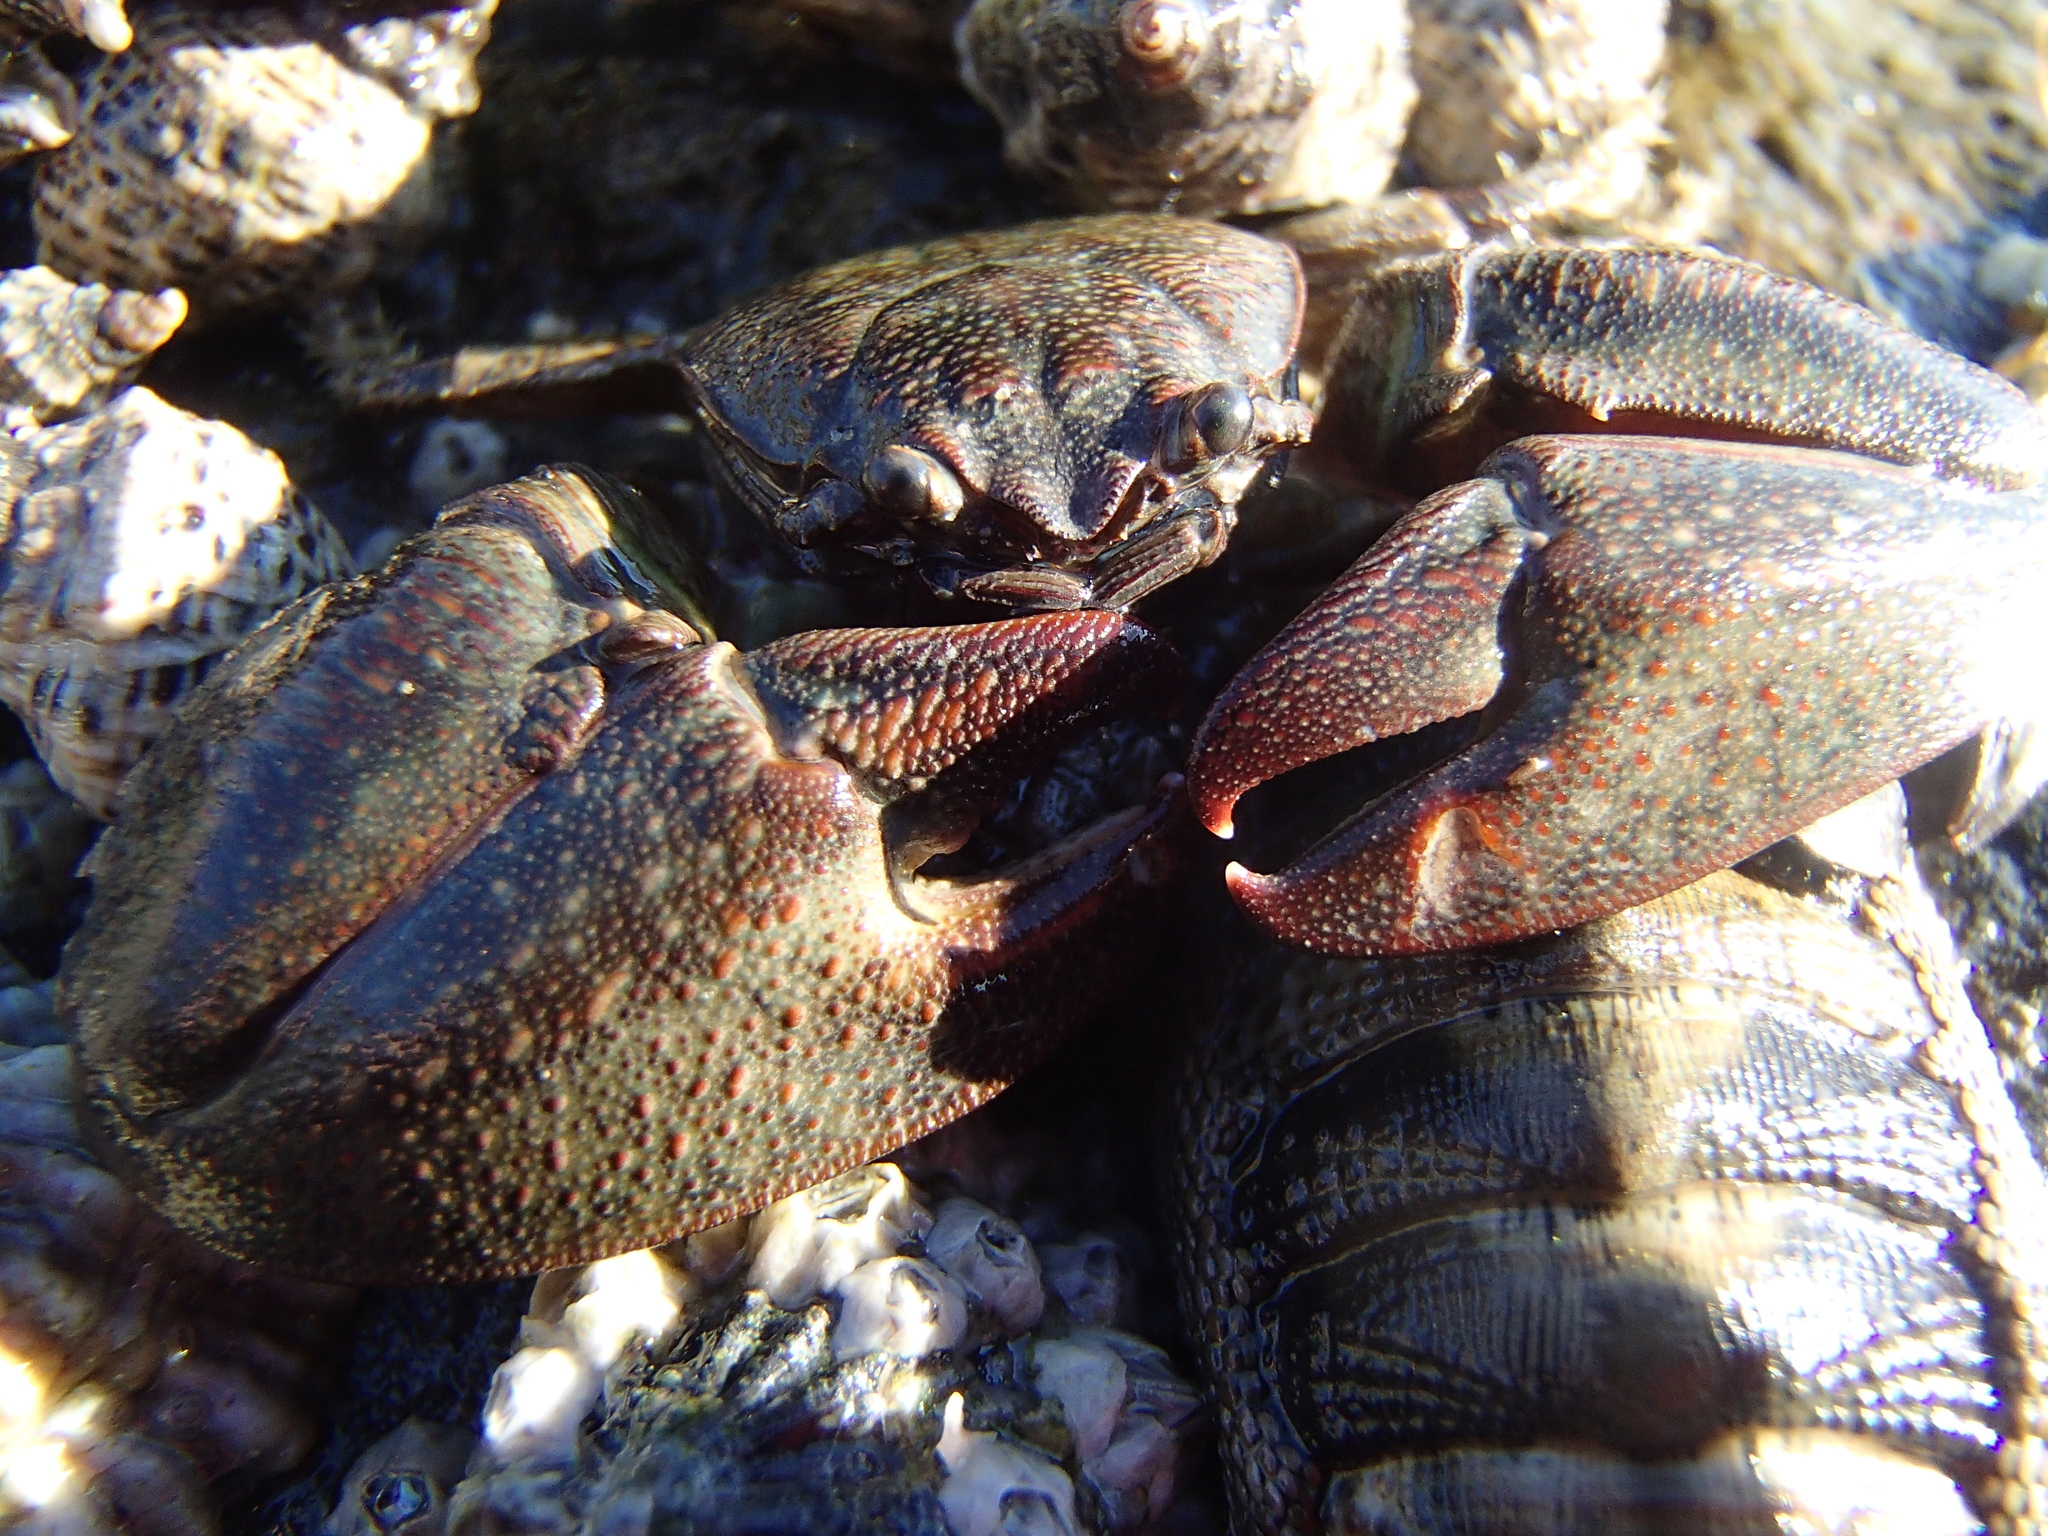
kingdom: Animalia
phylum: Arthropoda
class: Malacostraca
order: Decapoda
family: Porcellanidae
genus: Petrolisthes
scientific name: Petrolisthes elongatus
